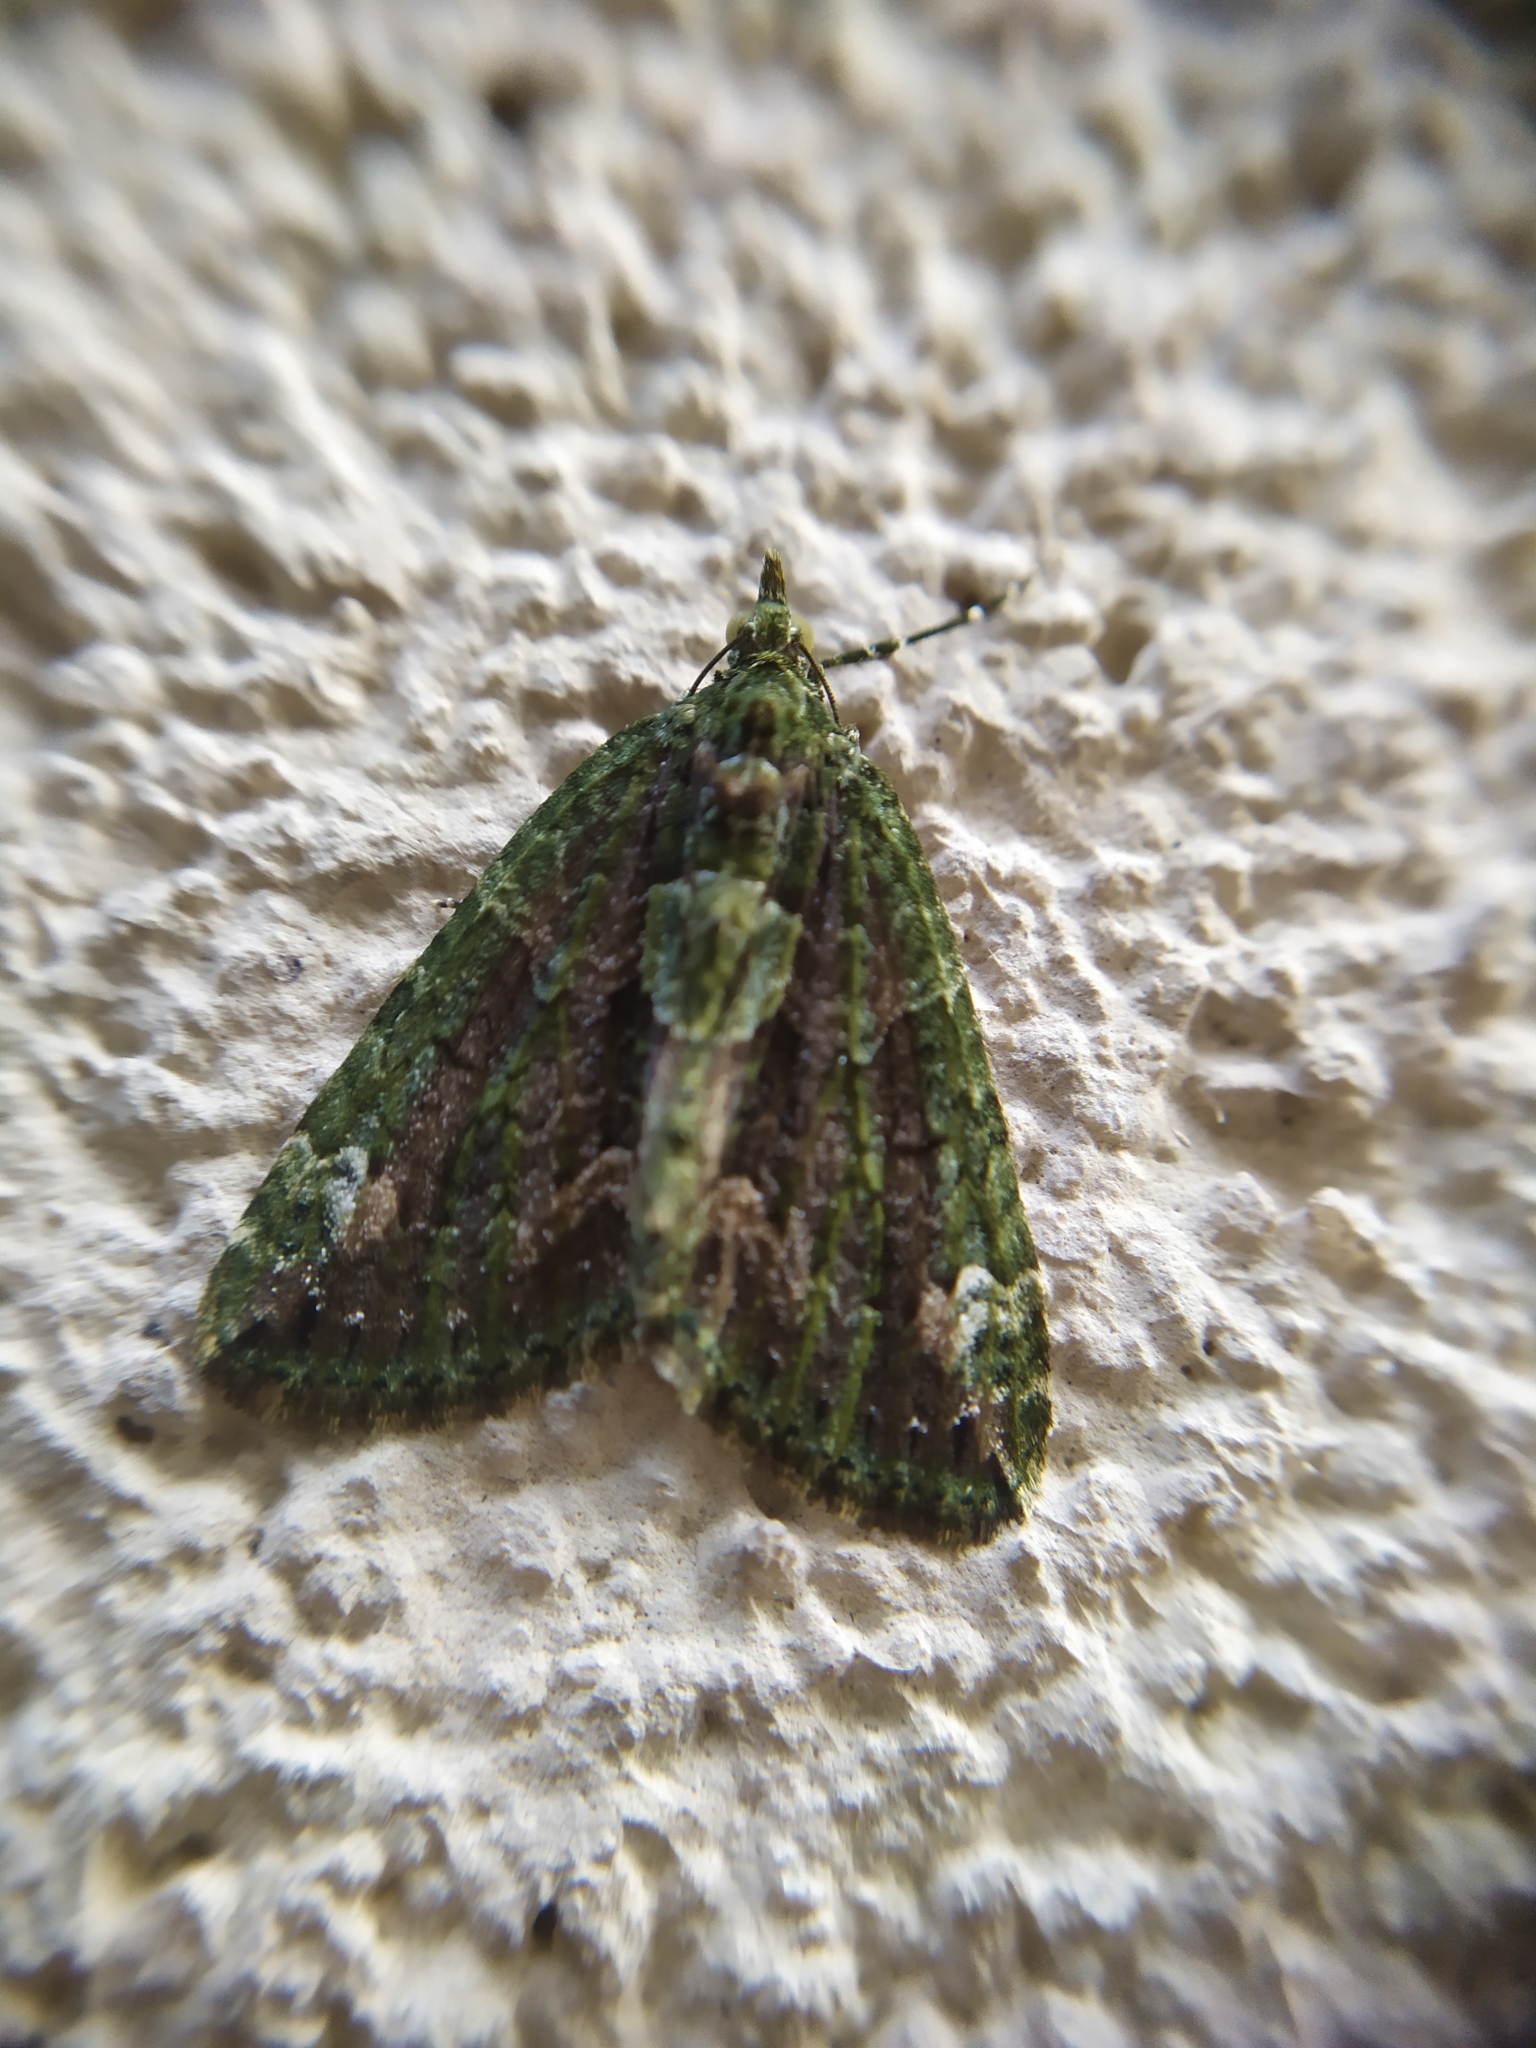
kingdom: Animalia
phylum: Arthropoda
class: Insecta
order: Lepidoptera
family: Geometridae
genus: Chloroclysta
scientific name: Chloroclysta siterata
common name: Red-green carpet
